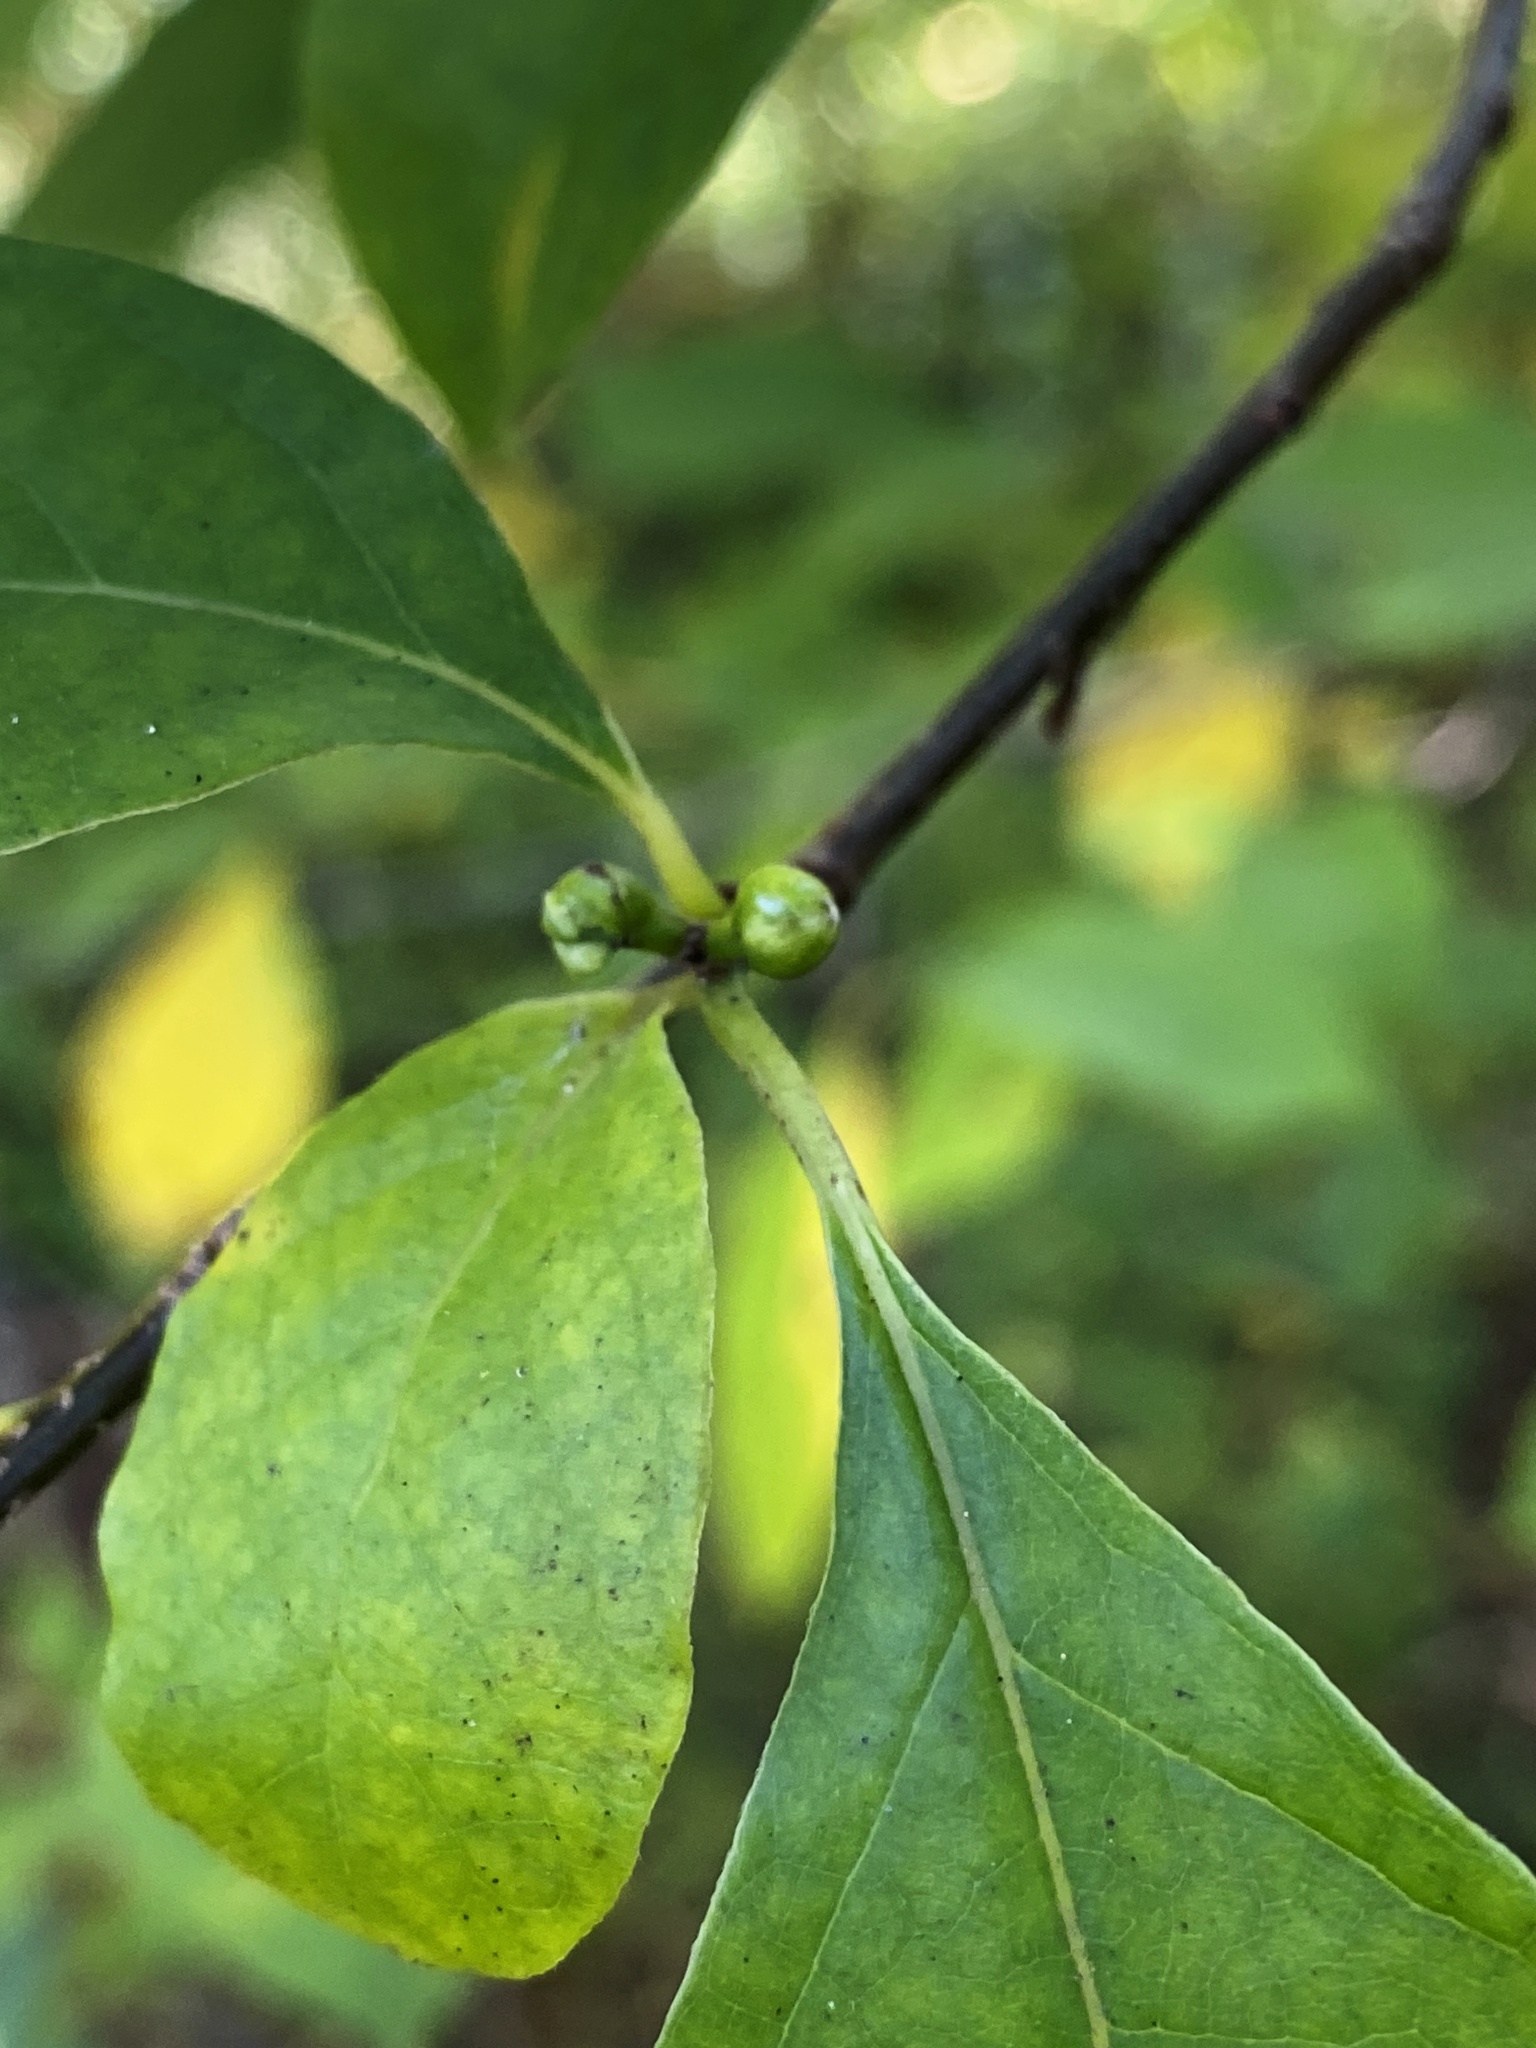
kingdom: Plantae
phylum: Tracheophyta
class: Magnoliopsida
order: Laurales
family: Lauraceae
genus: Lindera
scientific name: Lindera benzoin
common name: Spicebush
